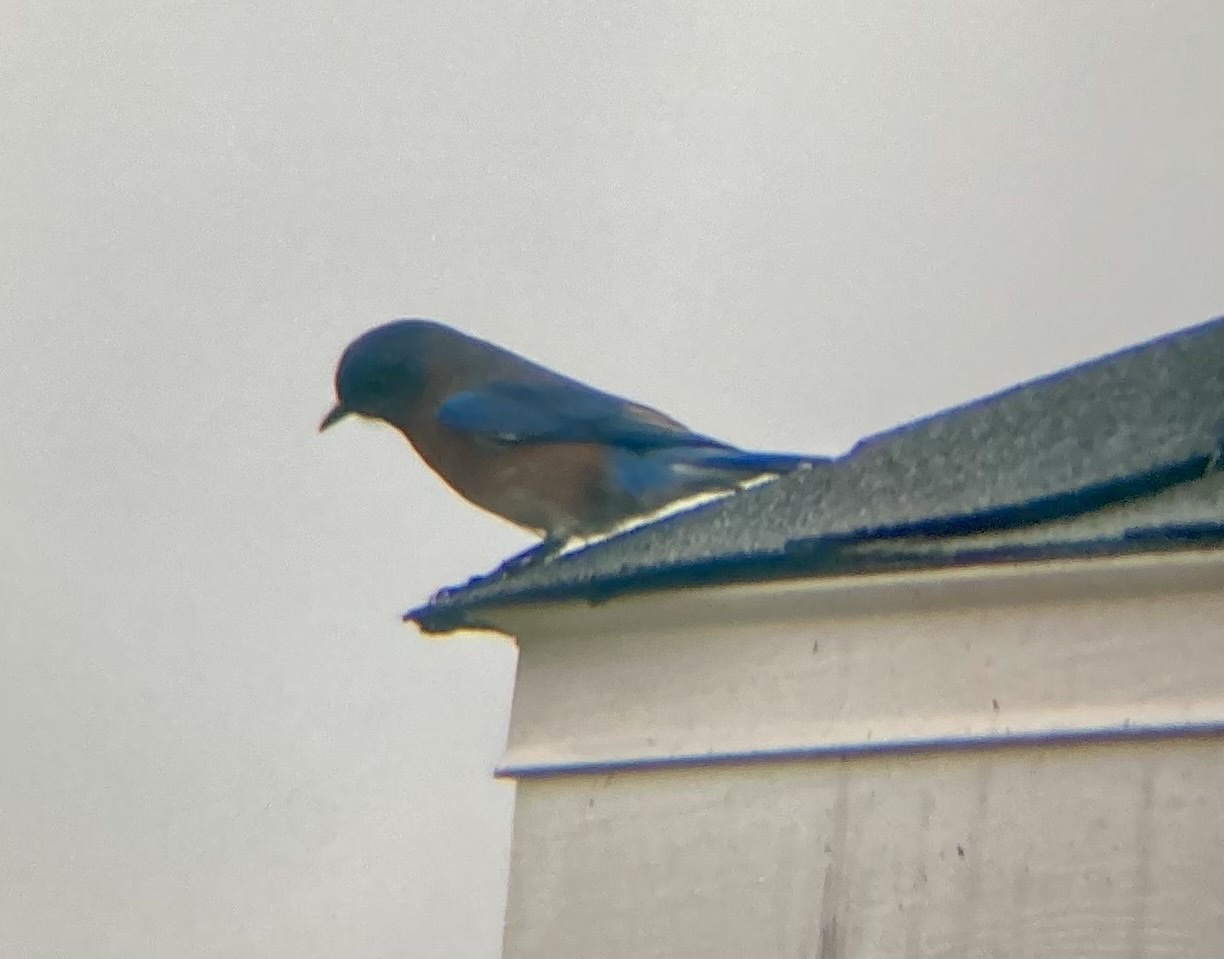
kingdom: Animalia
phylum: Chordata
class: Aves
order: Passeriformes
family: Turdidae
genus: Sialia
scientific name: Sialia sialis
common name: Eastern bluebird
